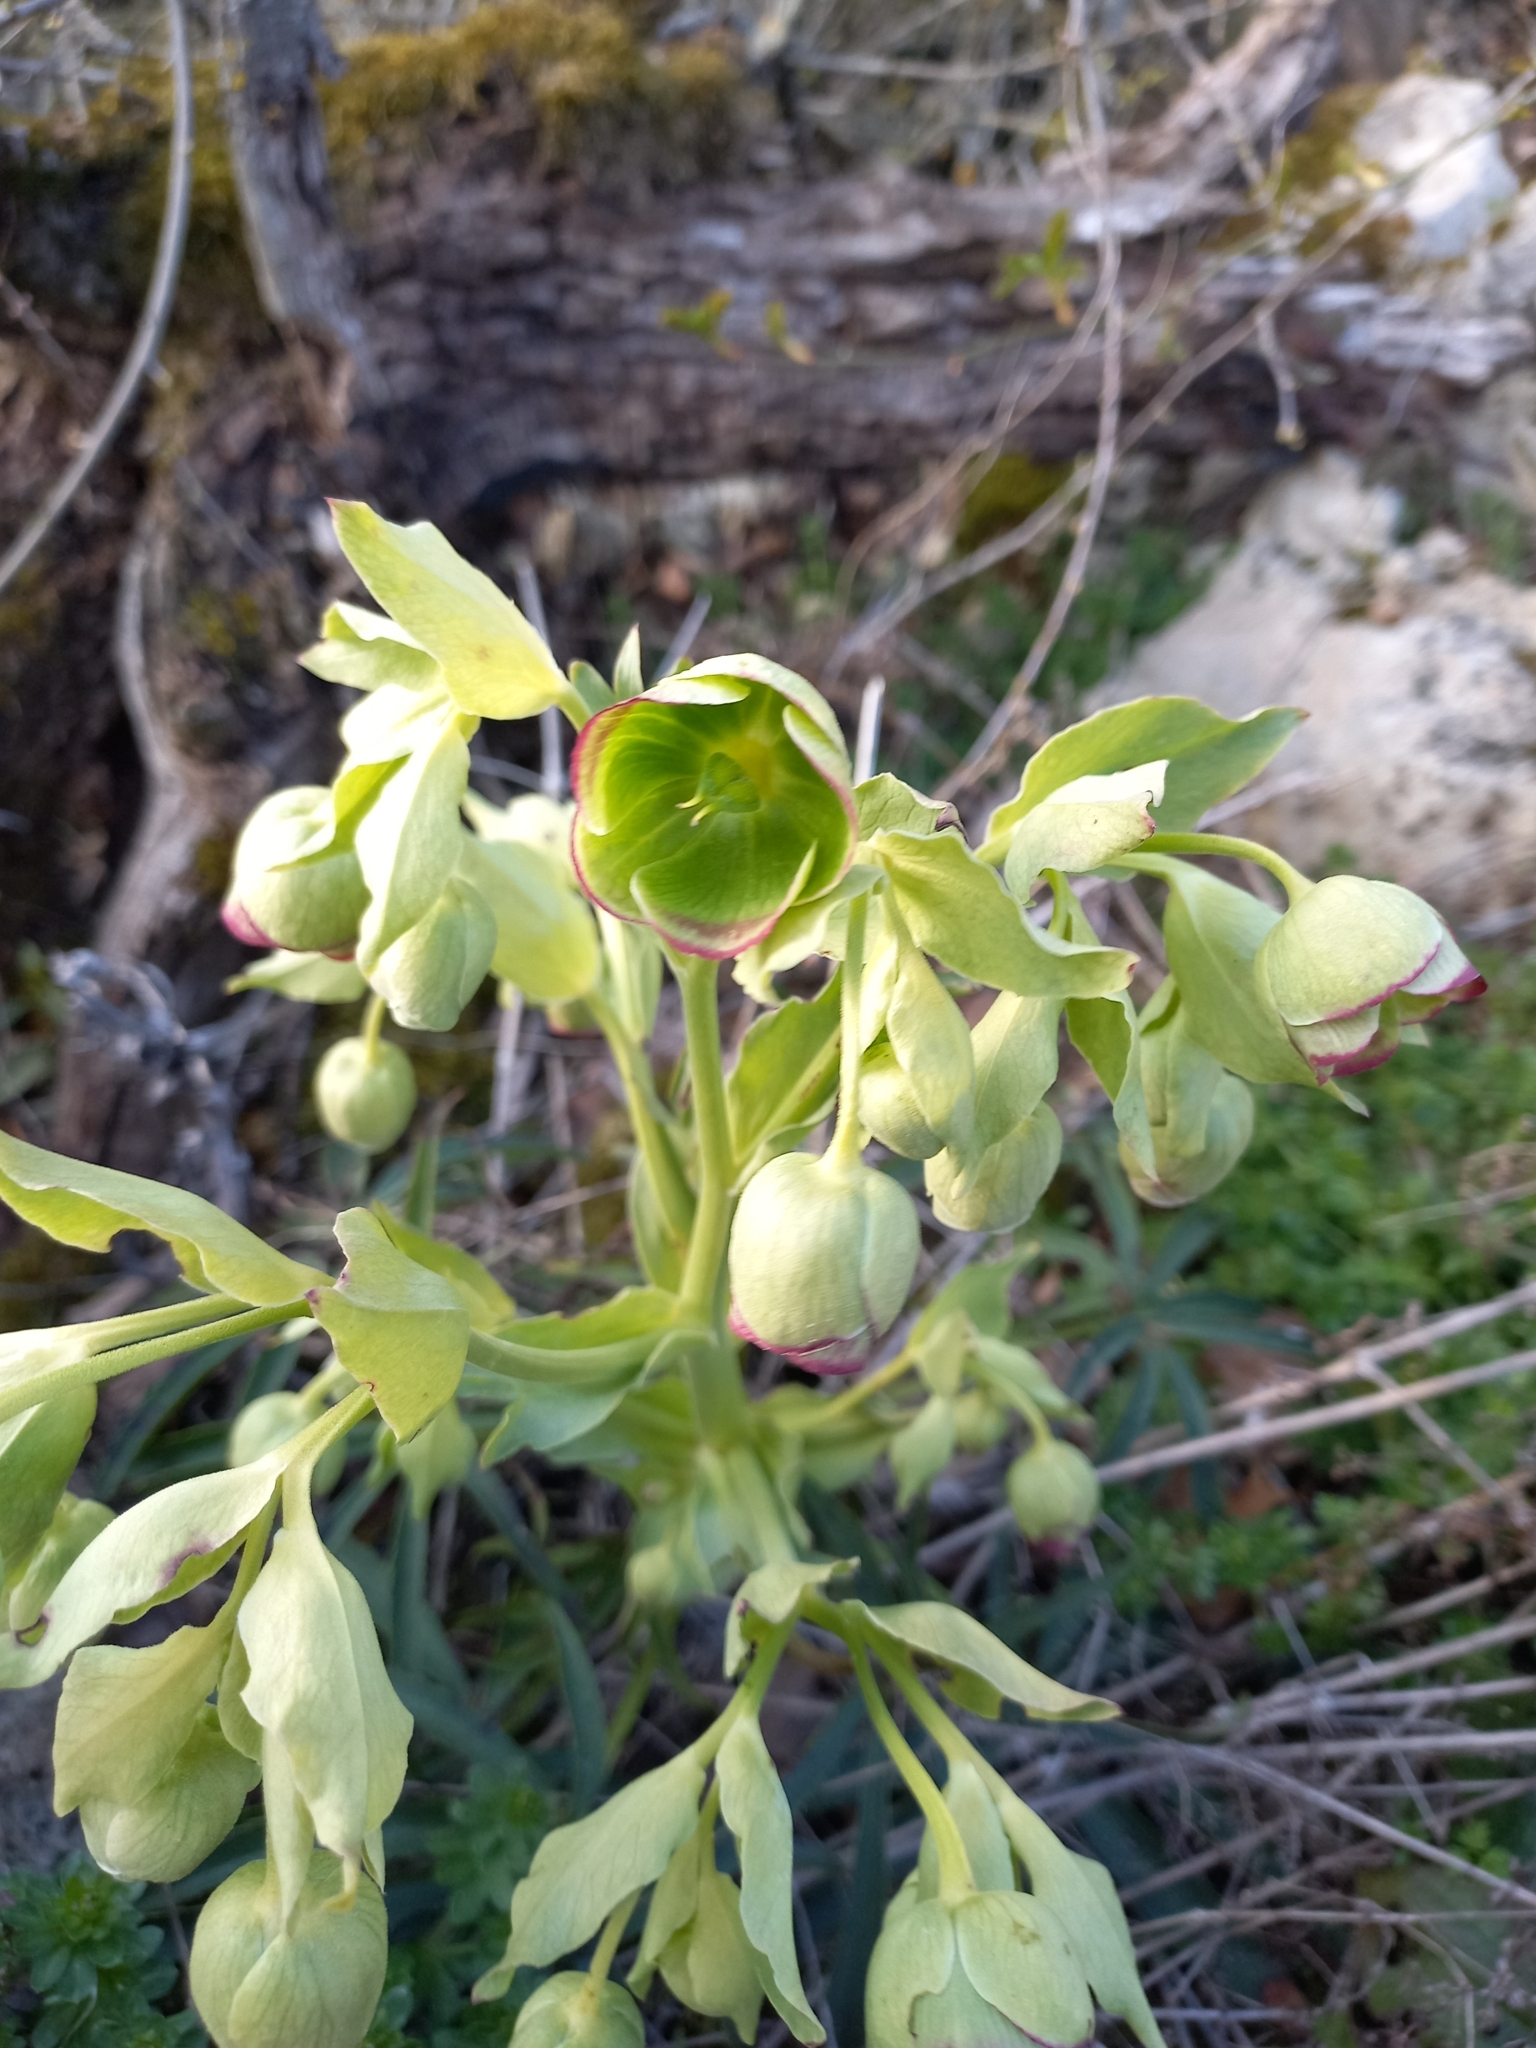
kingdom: Plantae
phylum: Tracheophyta
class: Magnoliopsida
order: Ranunculales
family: Ranunculaceae
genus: Helleborus
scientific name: Helleborus foetidus
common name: Stinking hellebore
